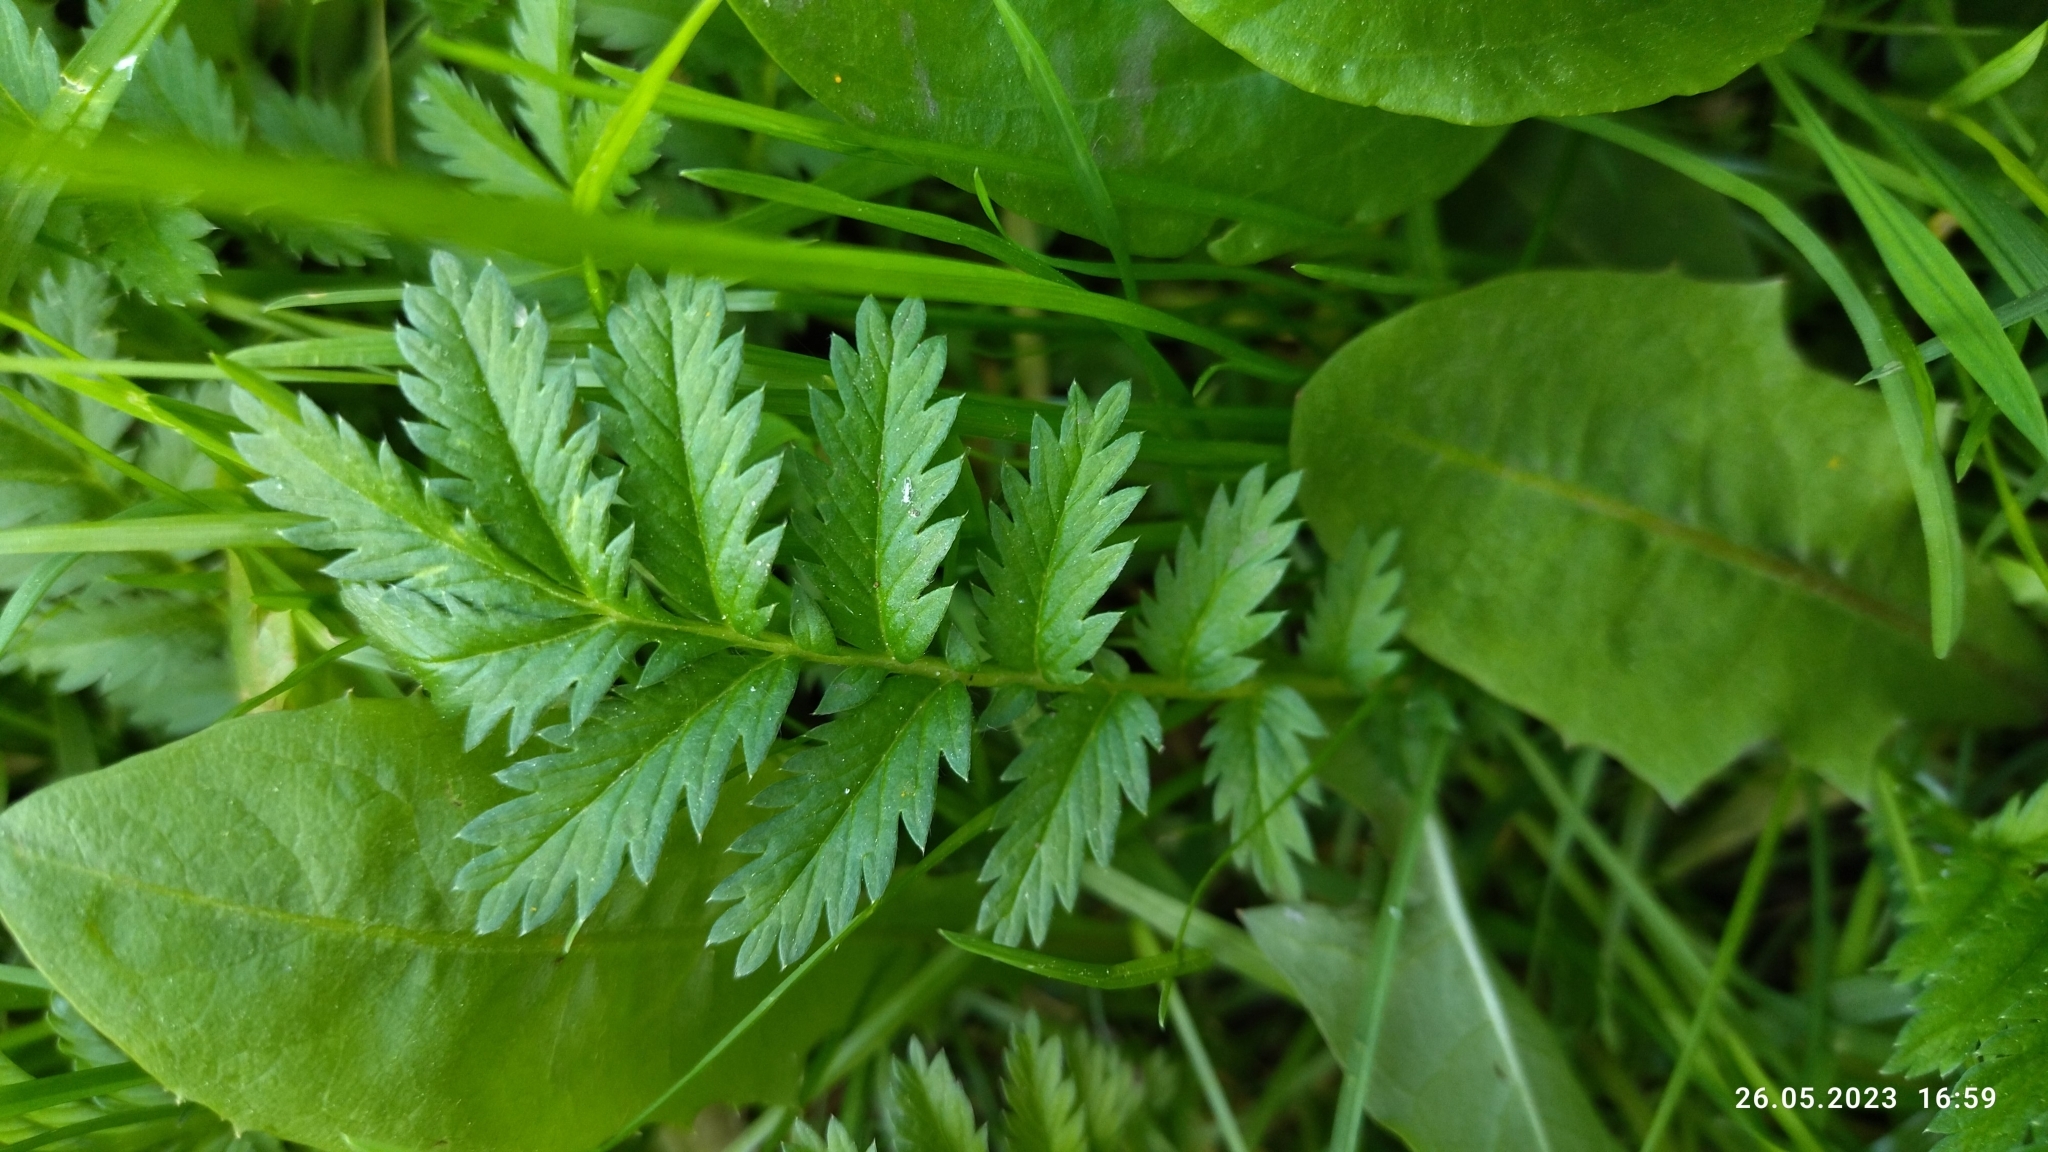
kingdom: Plantae
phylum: Tracheophyta
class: Magnoliopsida
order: Rosales
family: Rosaceae
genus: Argentina
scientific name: Argentina anserina
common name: Common silverweed
